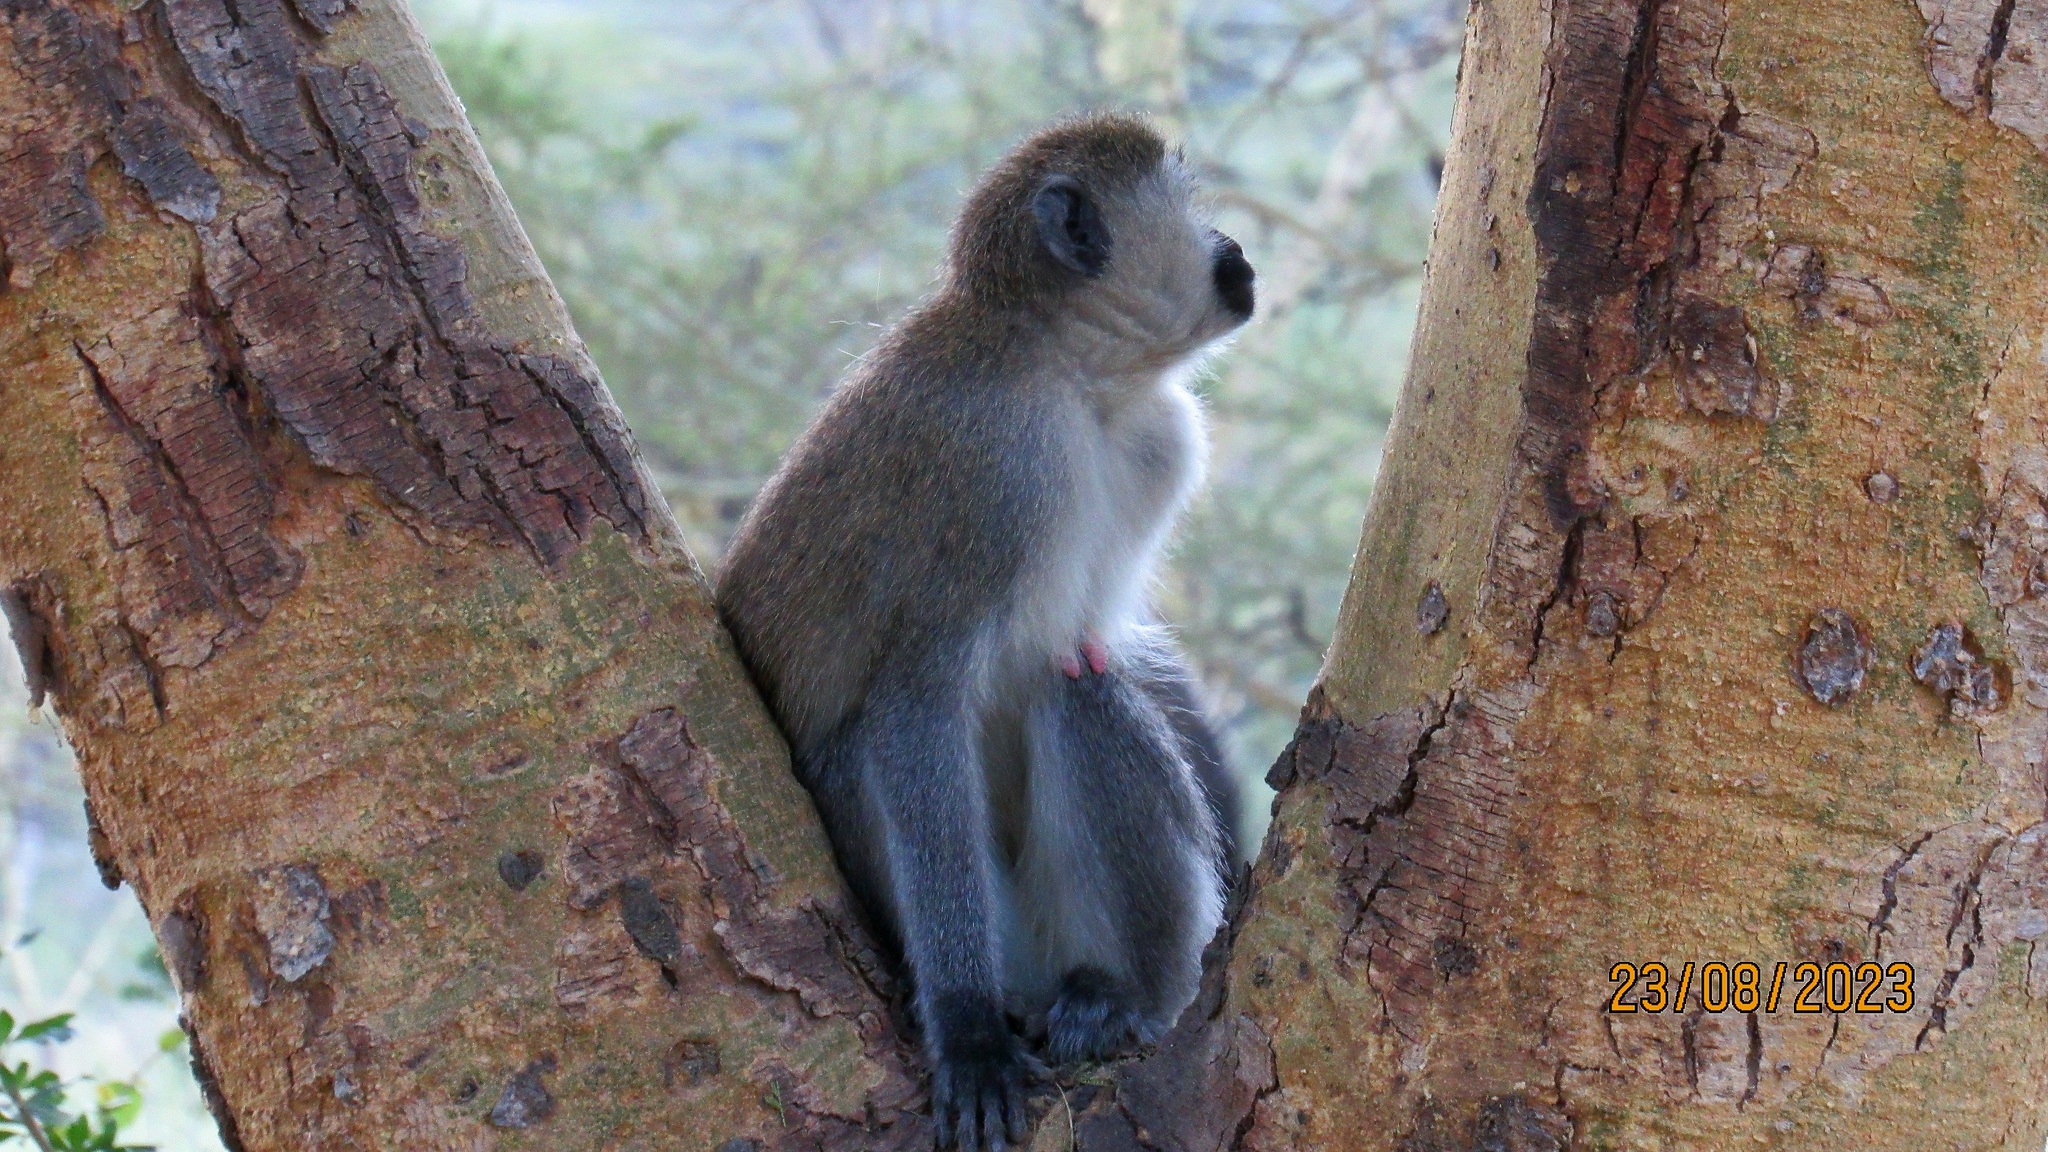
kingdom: Animalia
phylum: Chordata
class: Mammalia
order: Primates
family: Cercopithecidae
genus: Chlorocebus
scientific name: Chlorocebus pygerythrus
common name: Vervet monkey
